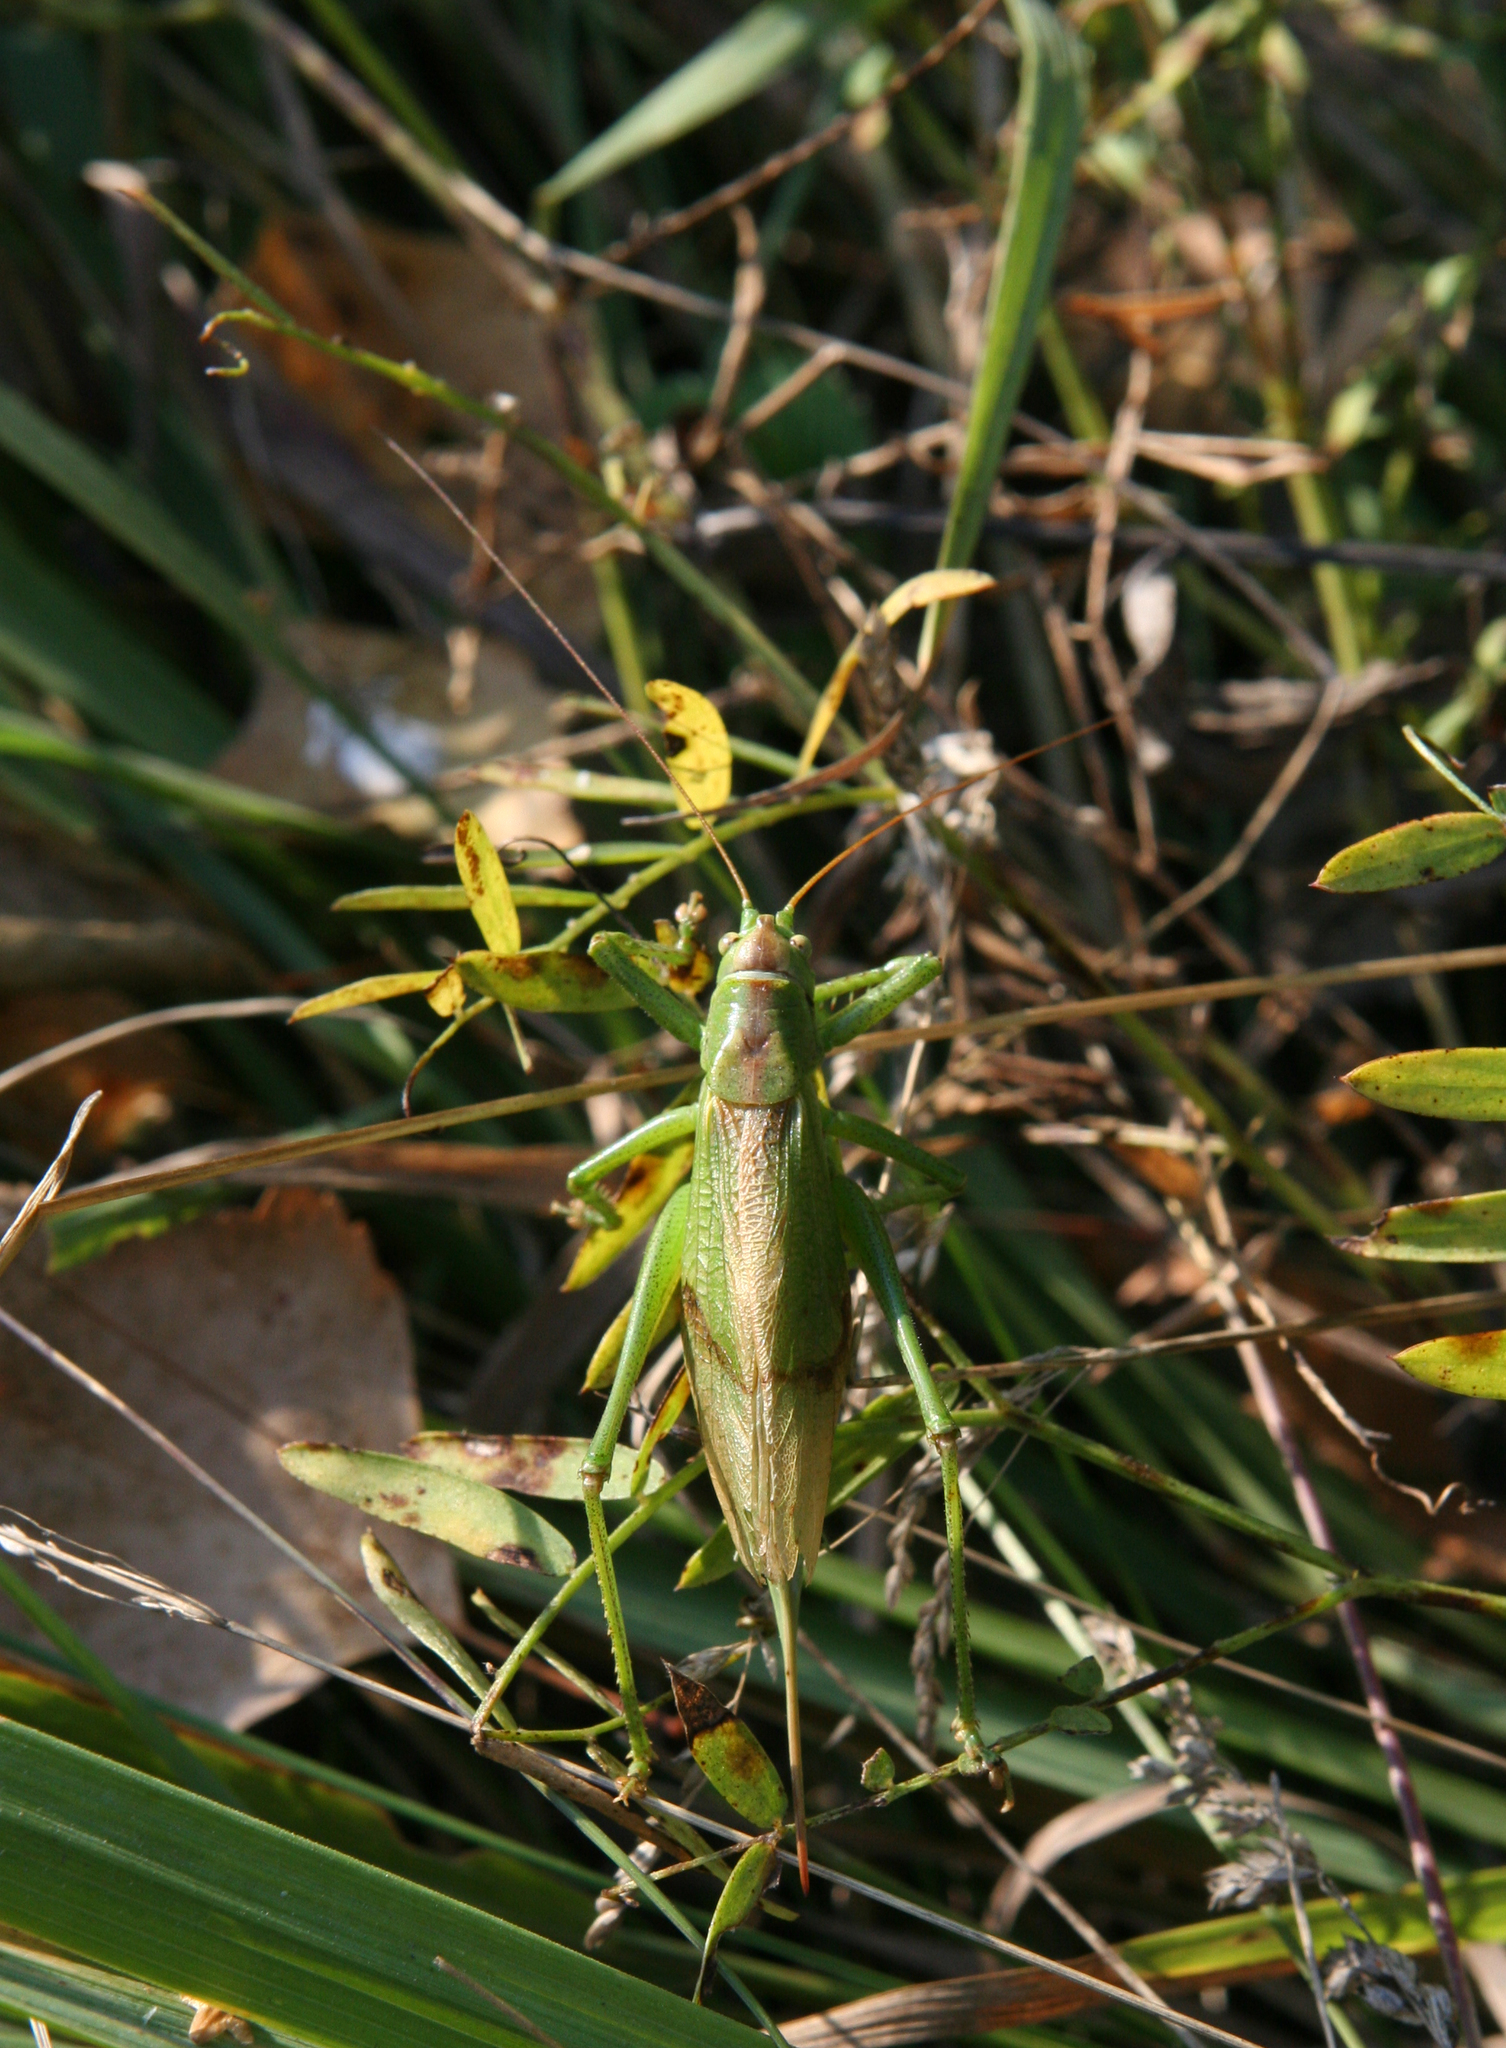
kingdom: Animalia
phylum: Arthropoda
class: Insecta
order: Orthoptera
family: Tettigoniidae
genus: Tettigonia
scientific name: Tettigonia cantans
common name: Upland green bush-cricket
